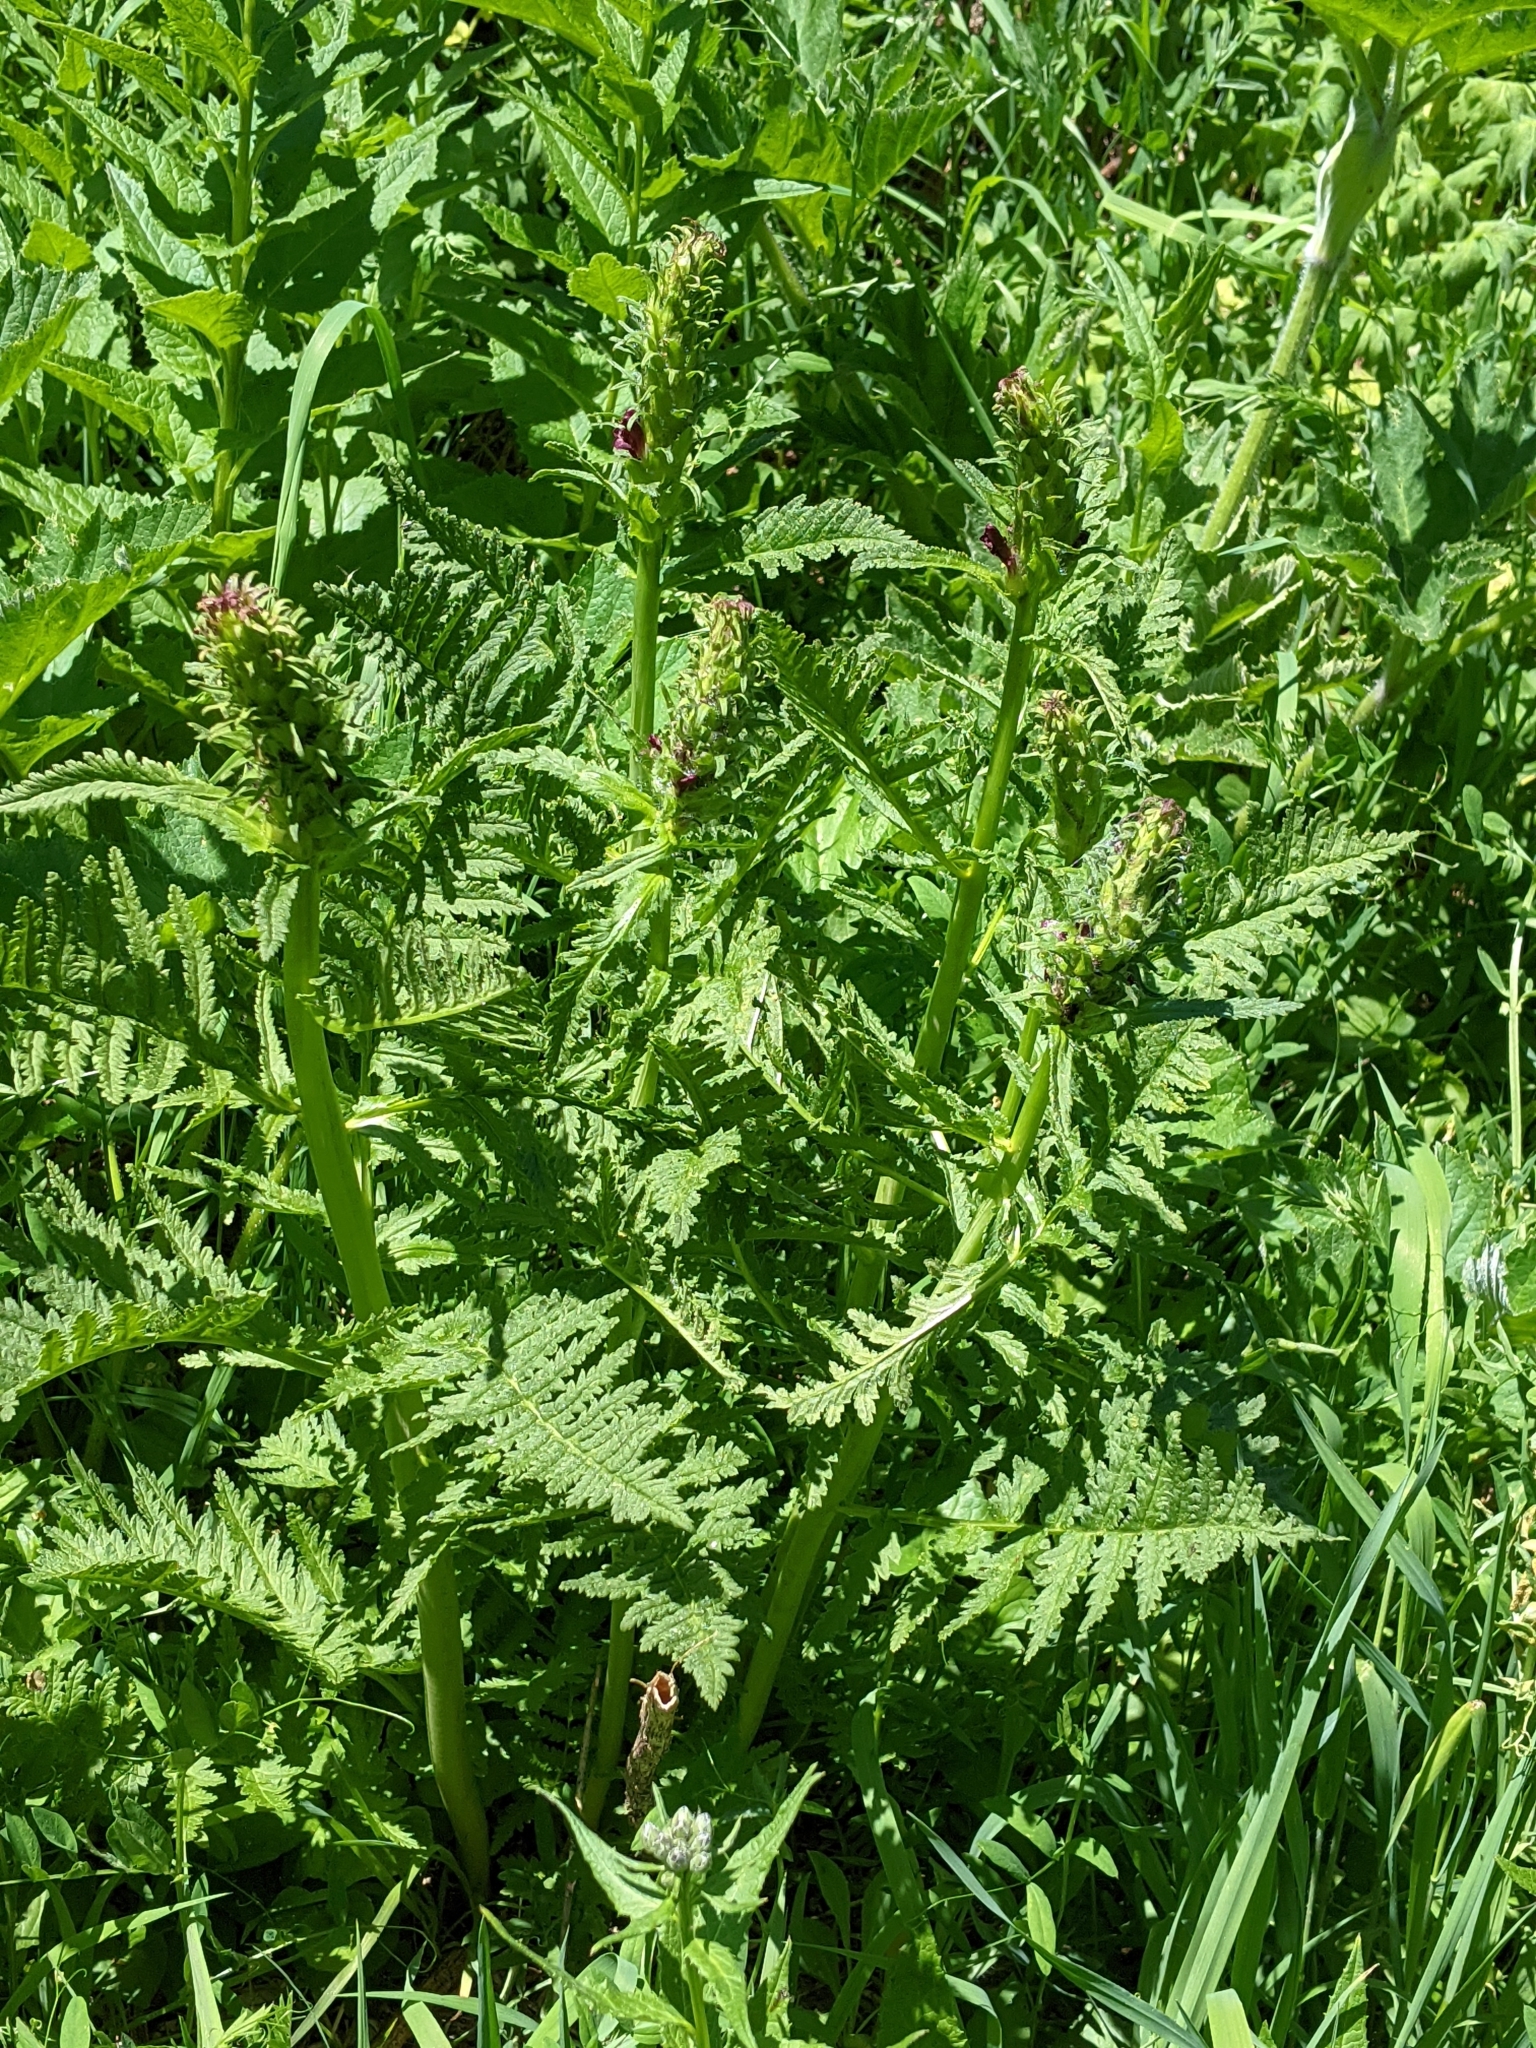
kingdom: Plantae
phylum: Tracheophyta
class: Magnoliopsida
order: Lamiales
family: Orobanchaceae
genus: Pedicularis
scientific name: Pedicularis bracteosa
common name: Bracted lousewort
